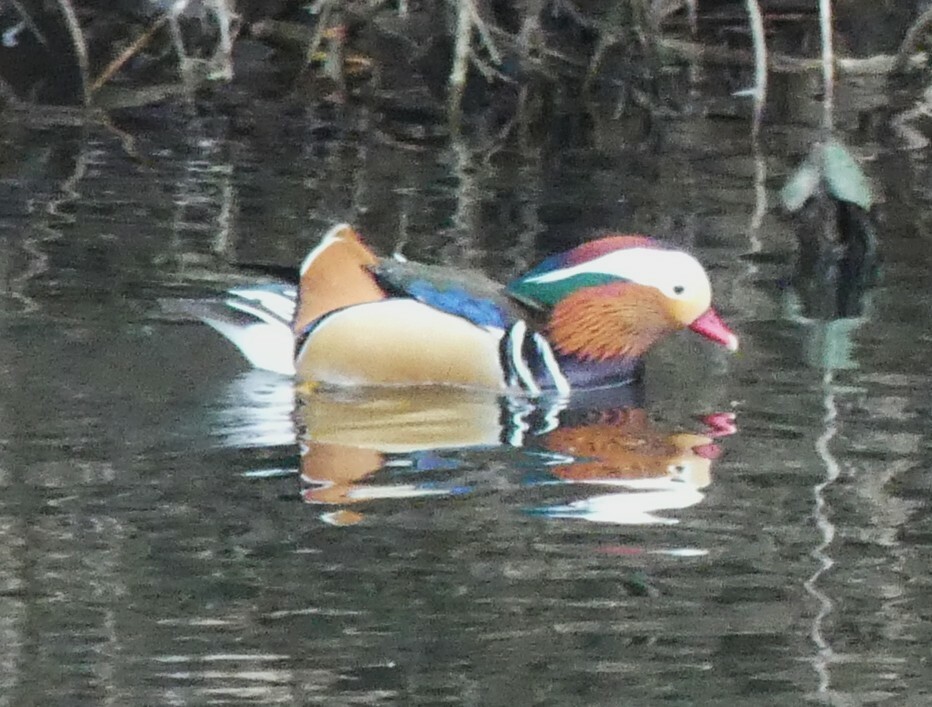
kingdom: Animalia
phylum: Chordata
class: Aves
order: Anseriformes
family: Anatidae
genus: Aix
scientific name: Aix galericulata
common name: Mandarin duck
